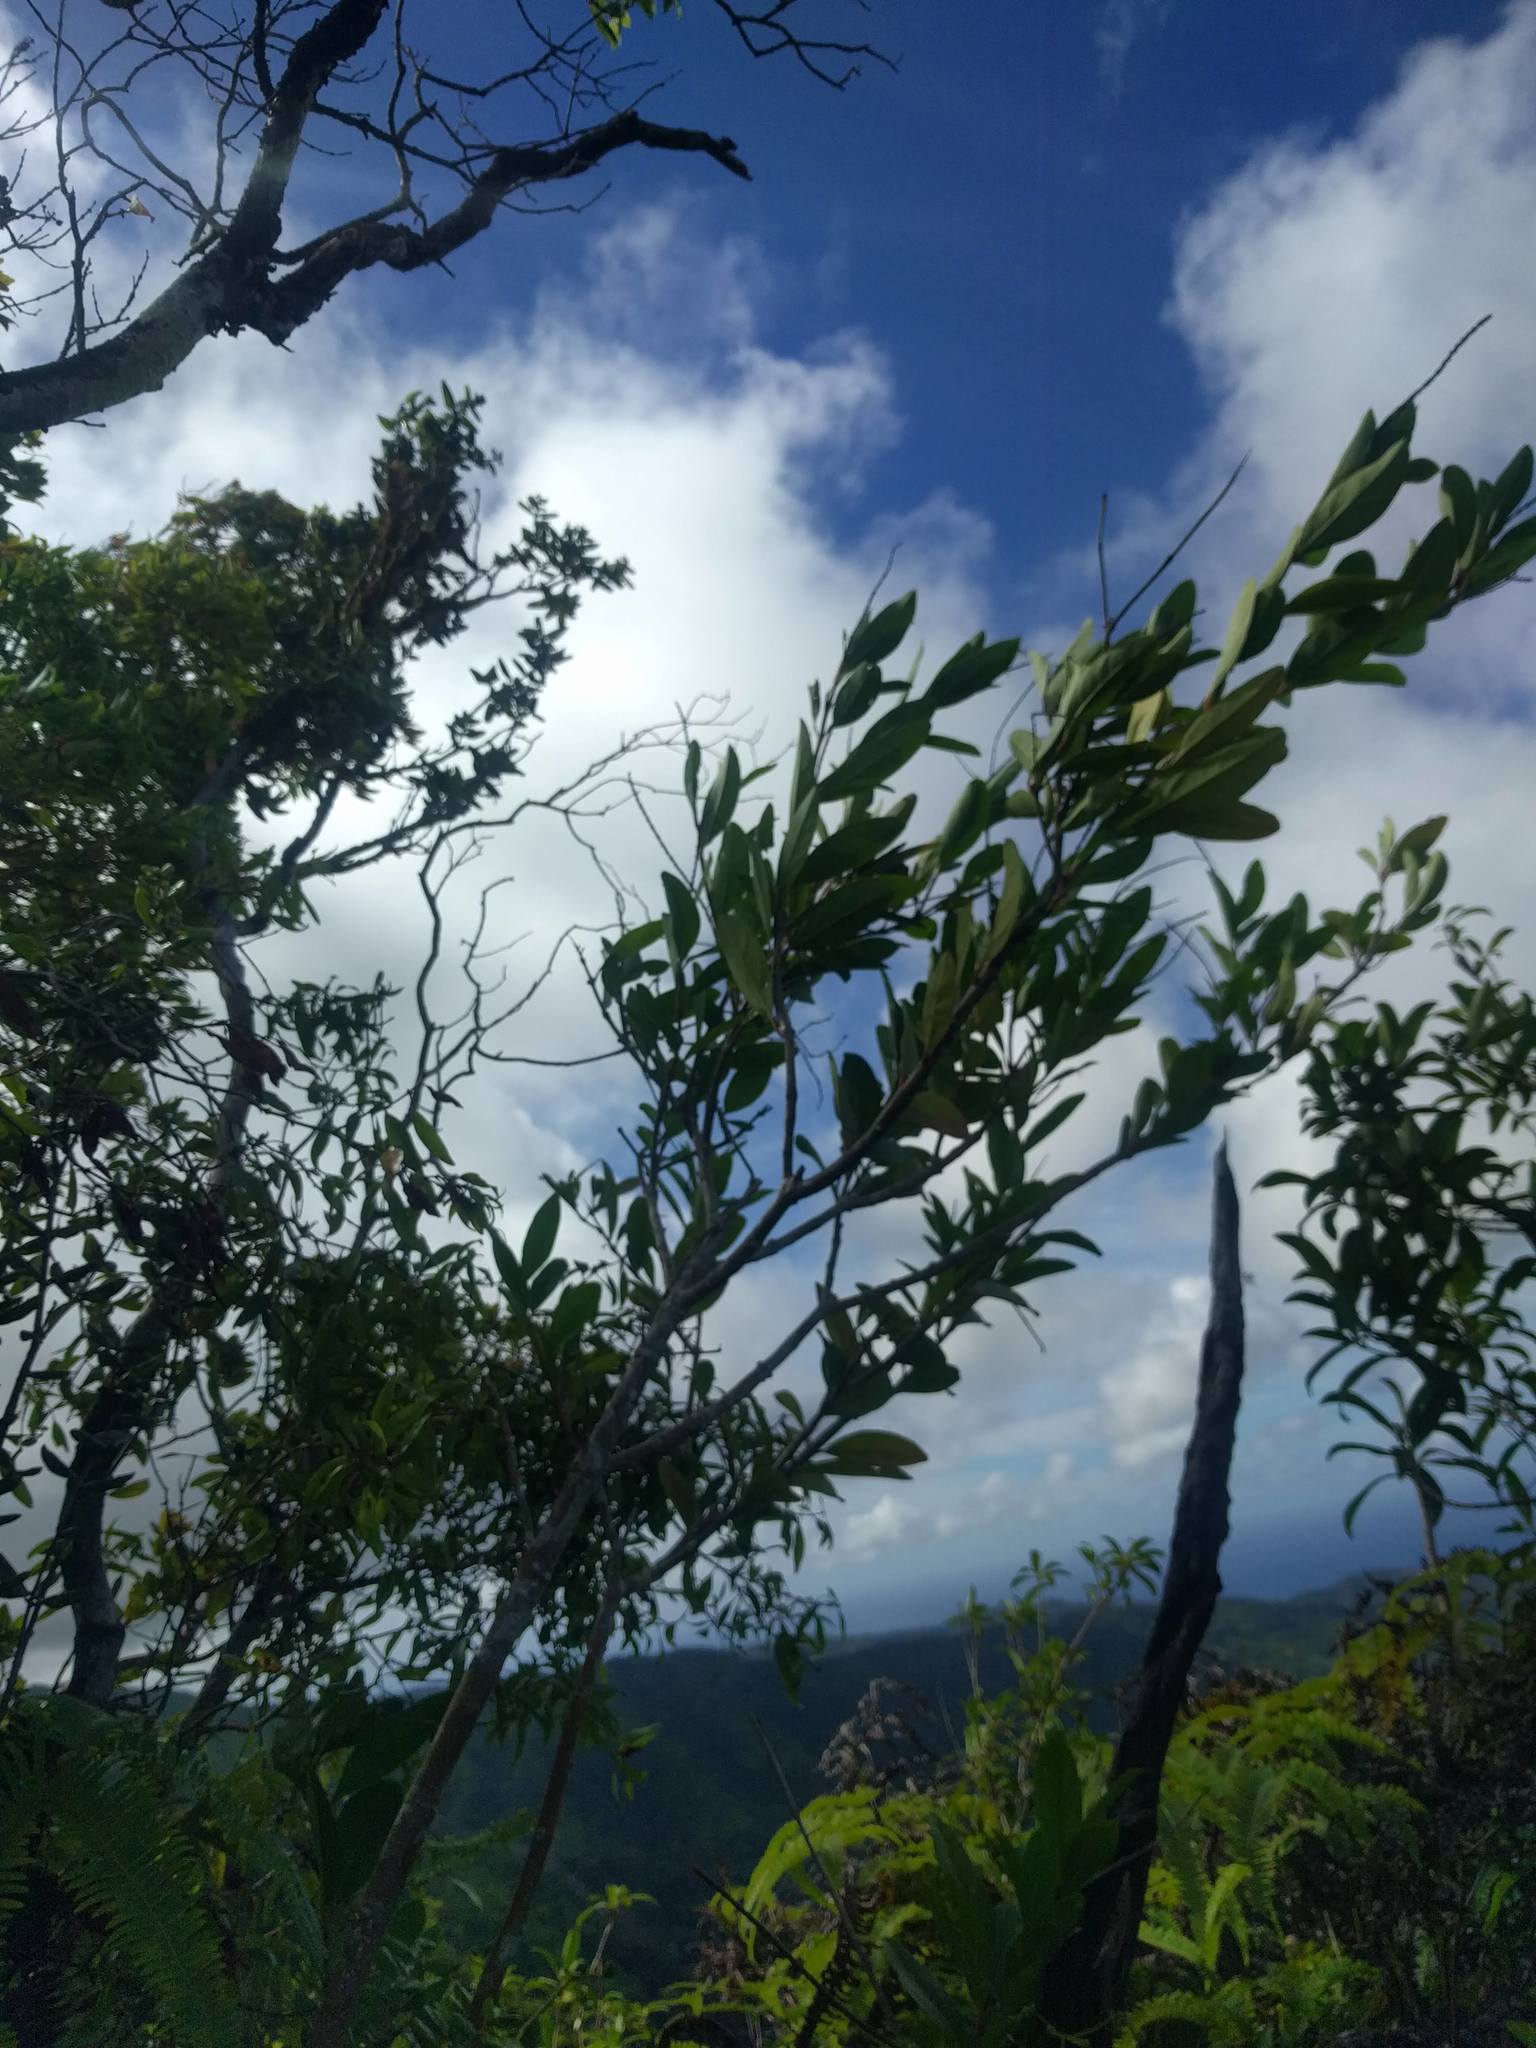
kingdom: Plantae
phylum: Tracheophyta
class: Magnoliopsida
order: Lamiales
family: Verbenaceae
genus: Citharexylum
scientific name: Citharexylum caudatum
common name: Fiddlewood
